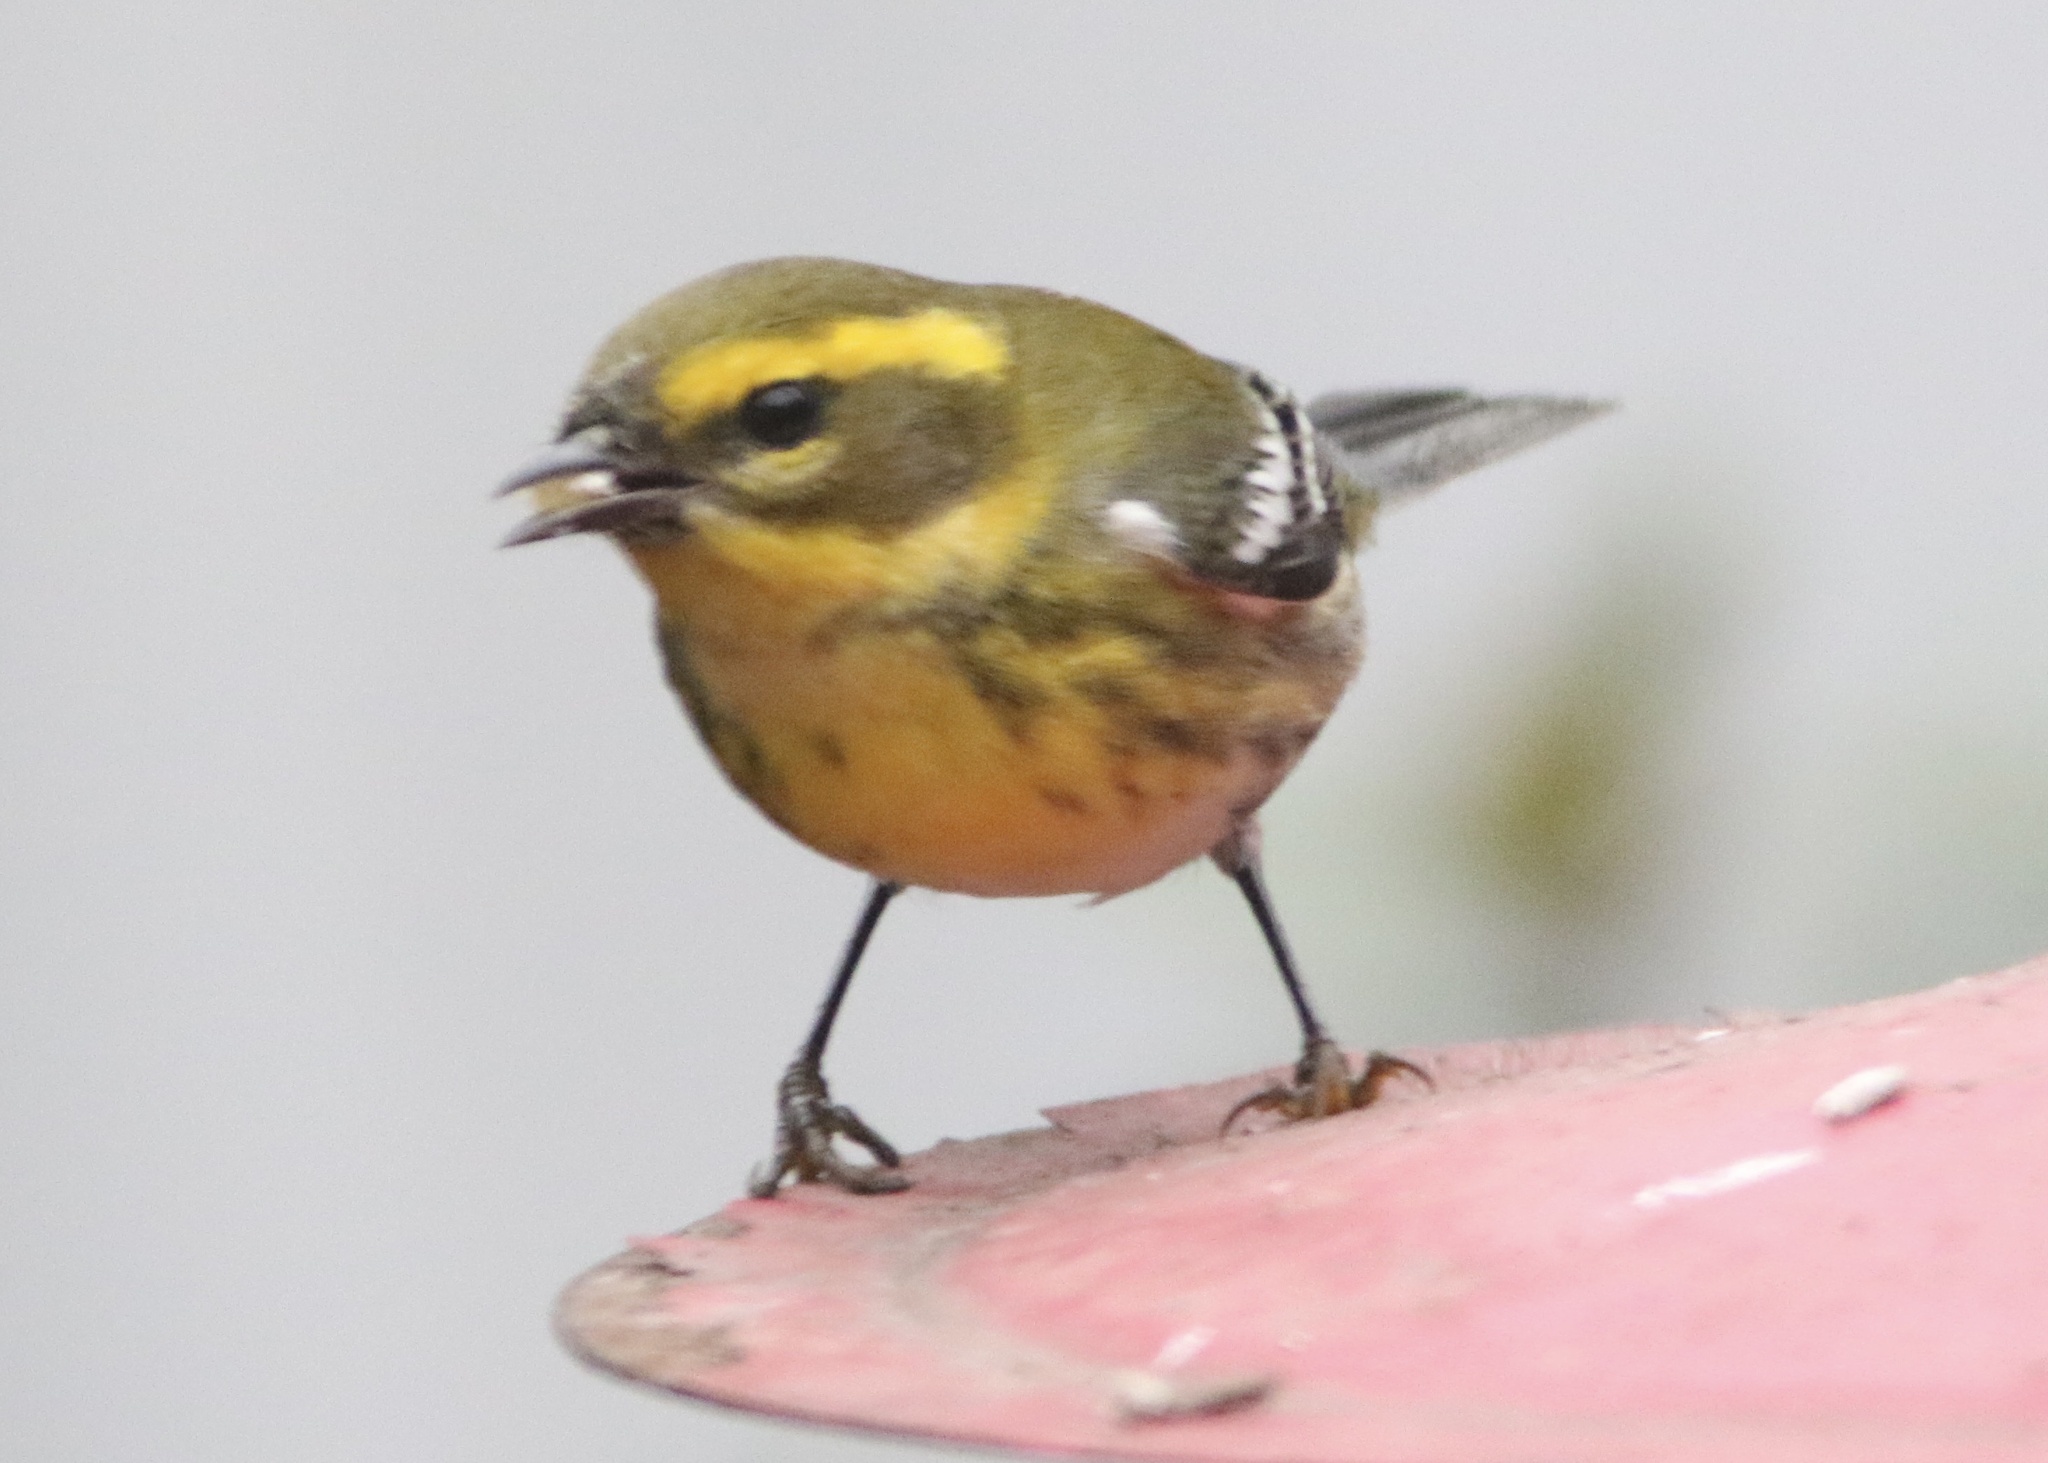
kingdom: Animalia
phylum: Chordata
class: Aves
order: Passeriformes
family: Parulidae
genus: Setophaga
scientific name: Setophaga townsendi
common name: Townsend's warbler
